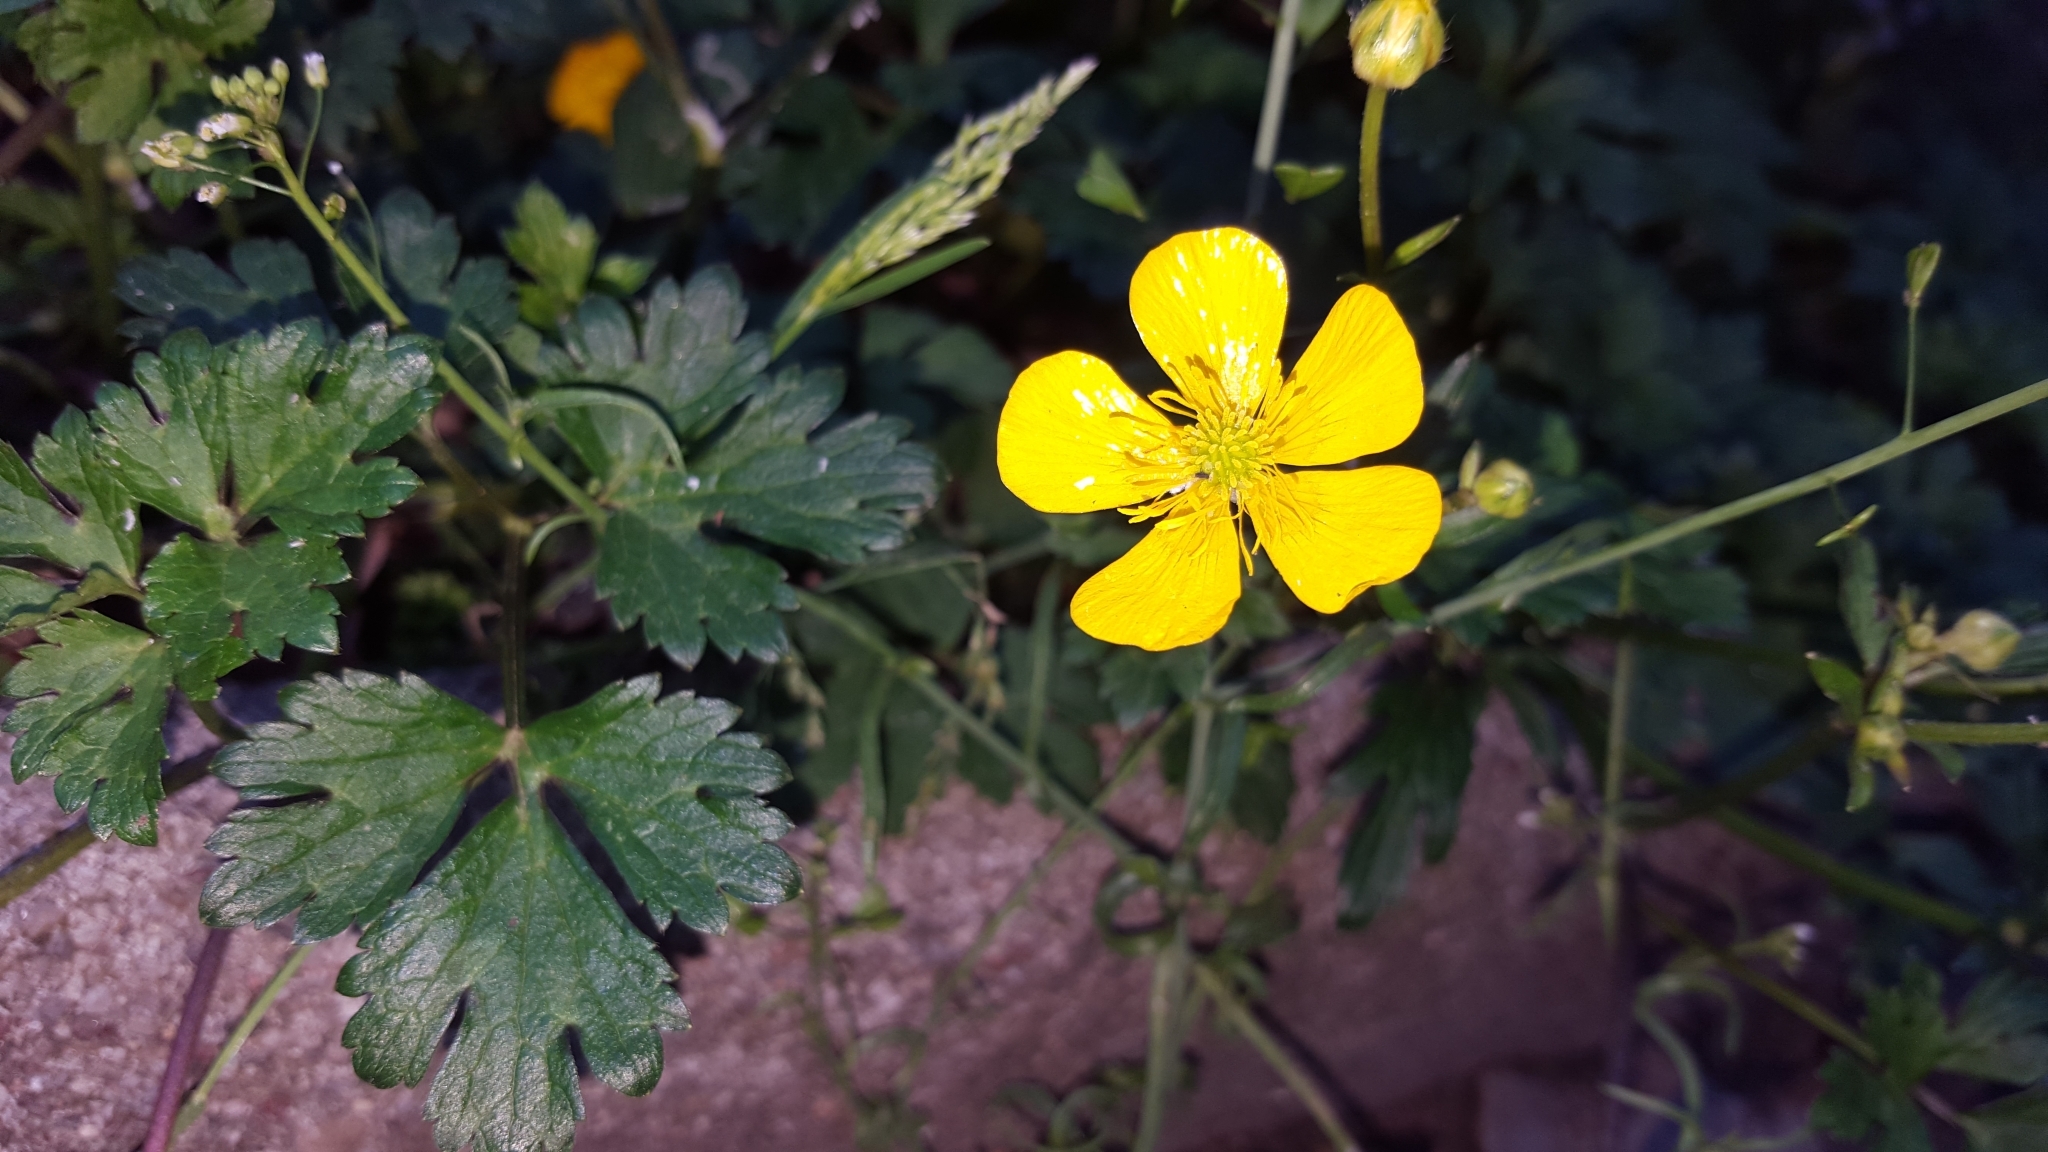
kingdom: Plantae
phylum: Tracheophyta
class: Magnoliopsida
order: Ranunculales
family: Ranunculaceae
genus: Ranunculus
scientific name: Ranunculus repens
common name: Creeping buttercup
